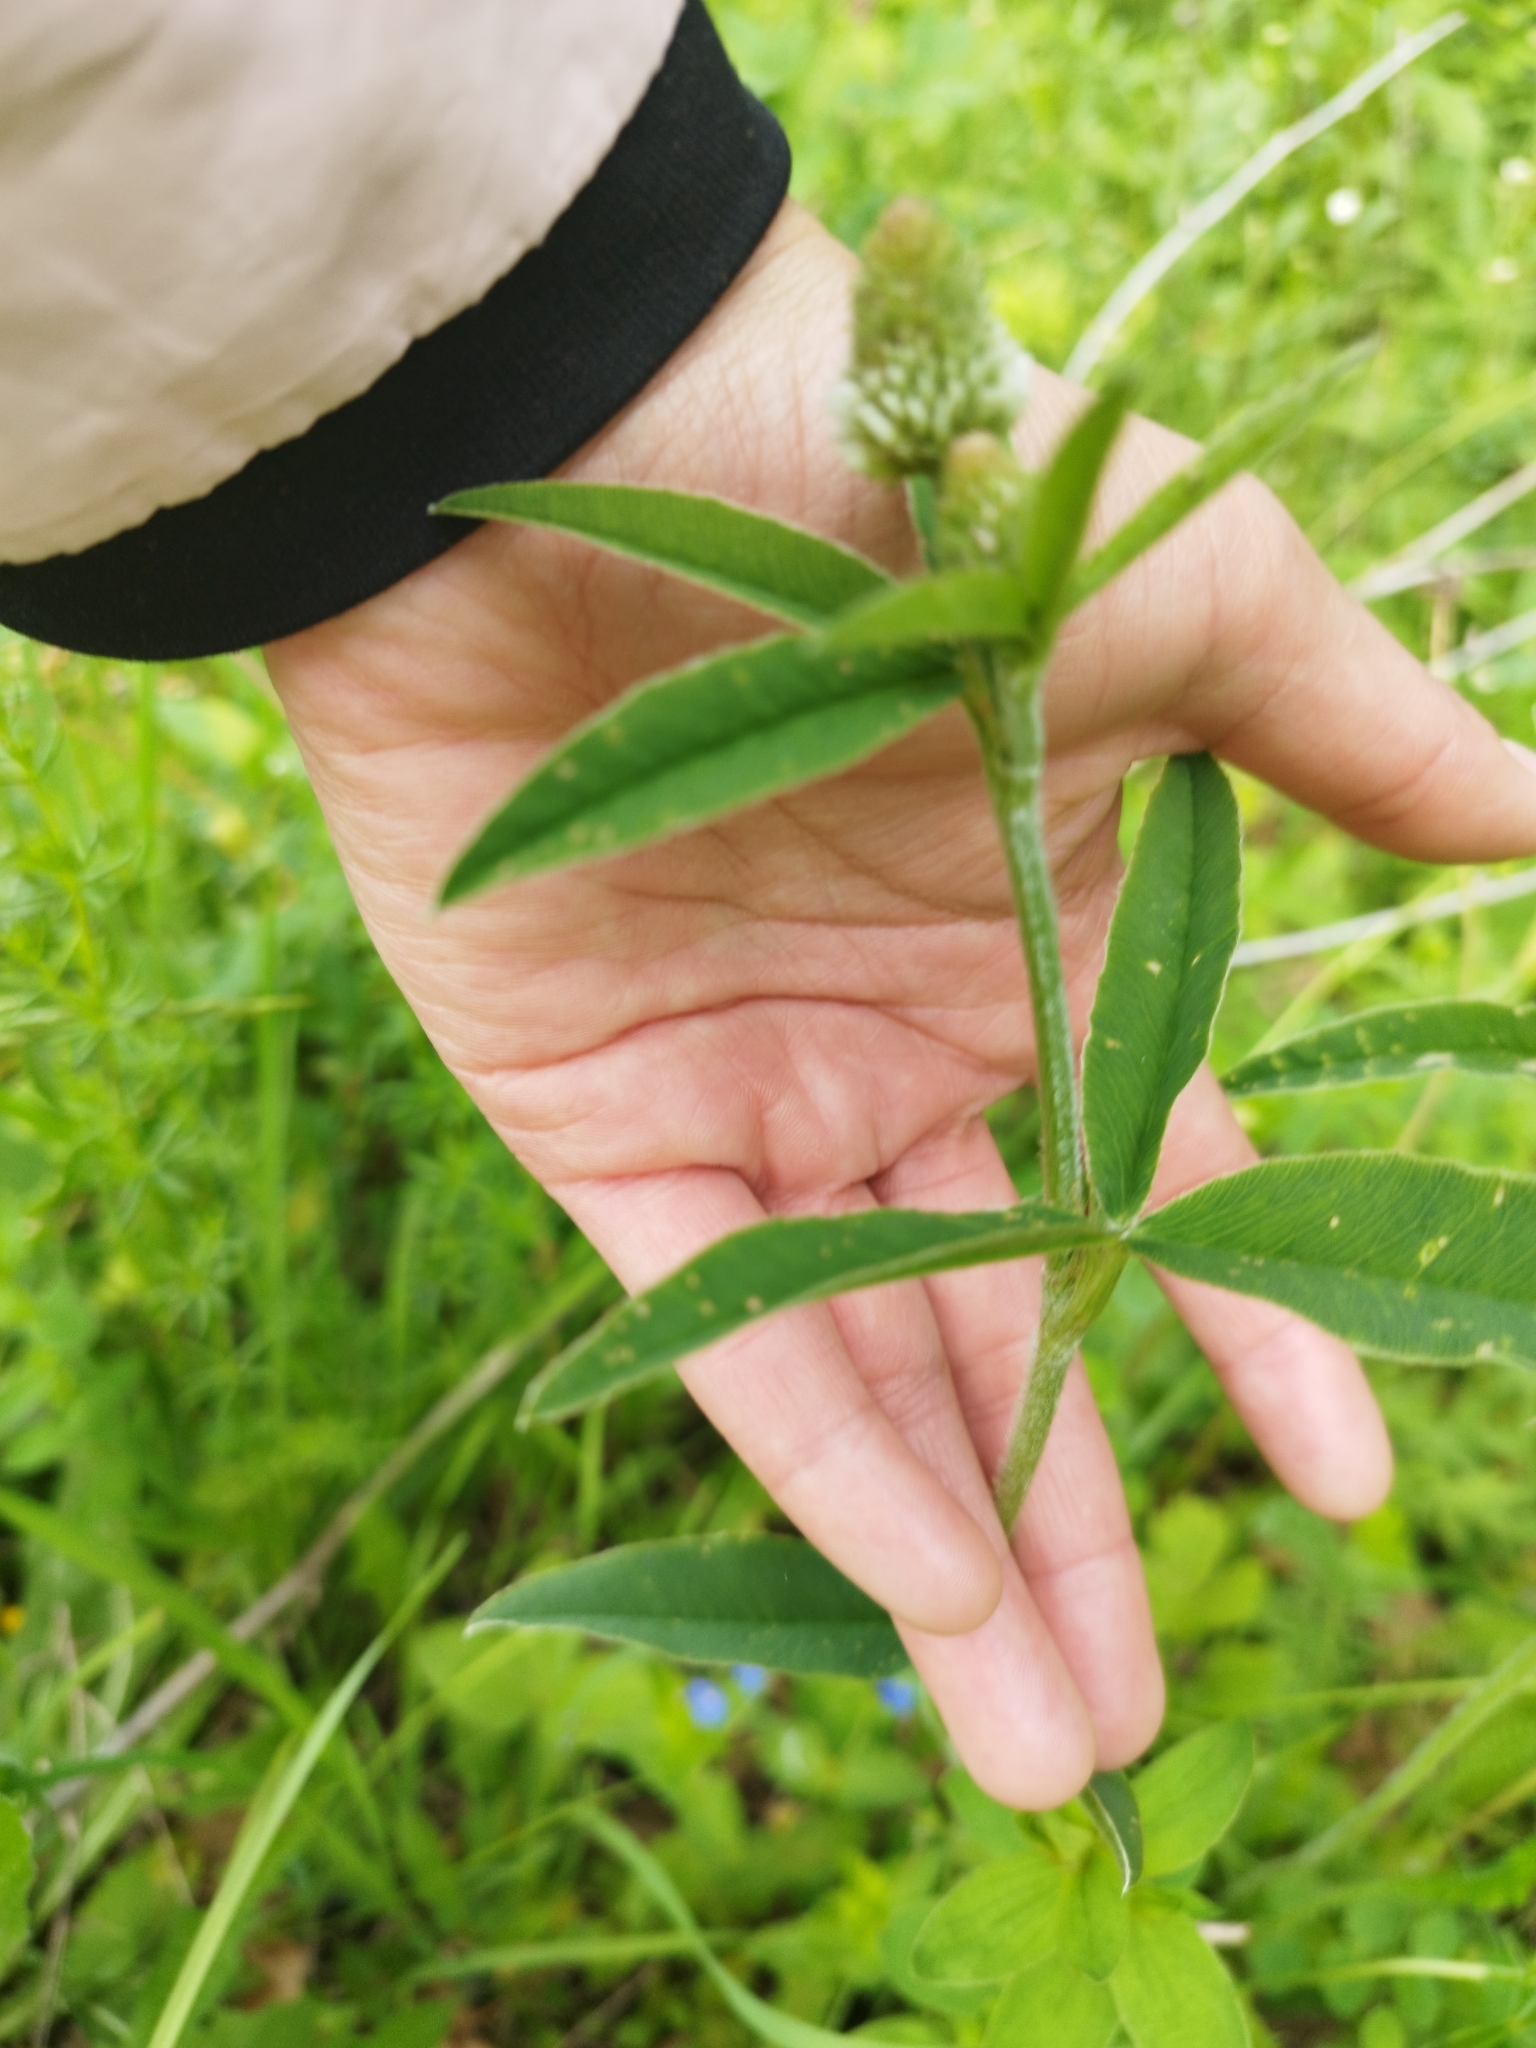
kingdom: Plantae
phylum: Tracheophyta
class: Magnoliopsida
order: Fabales
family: Fabaceae
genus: Trifolium
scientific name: Trifolium montanum
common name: Mountain clover
